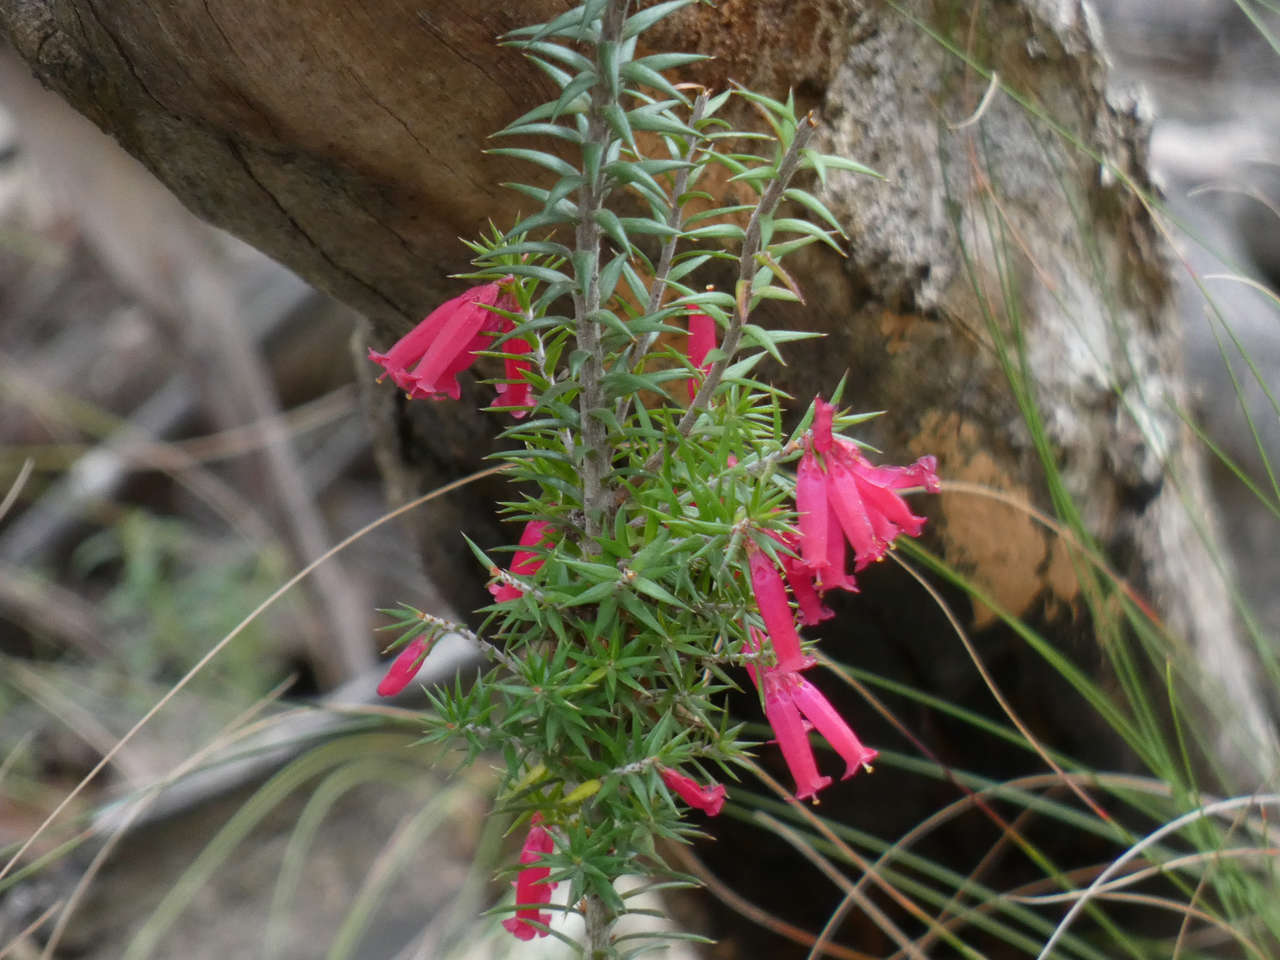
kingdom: Plantae
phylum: Tracheophyta
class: Magnoliopsida
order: Ericales
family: Ericaceae
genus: Epacris
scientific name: Epacris impressa
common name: Common-heath
